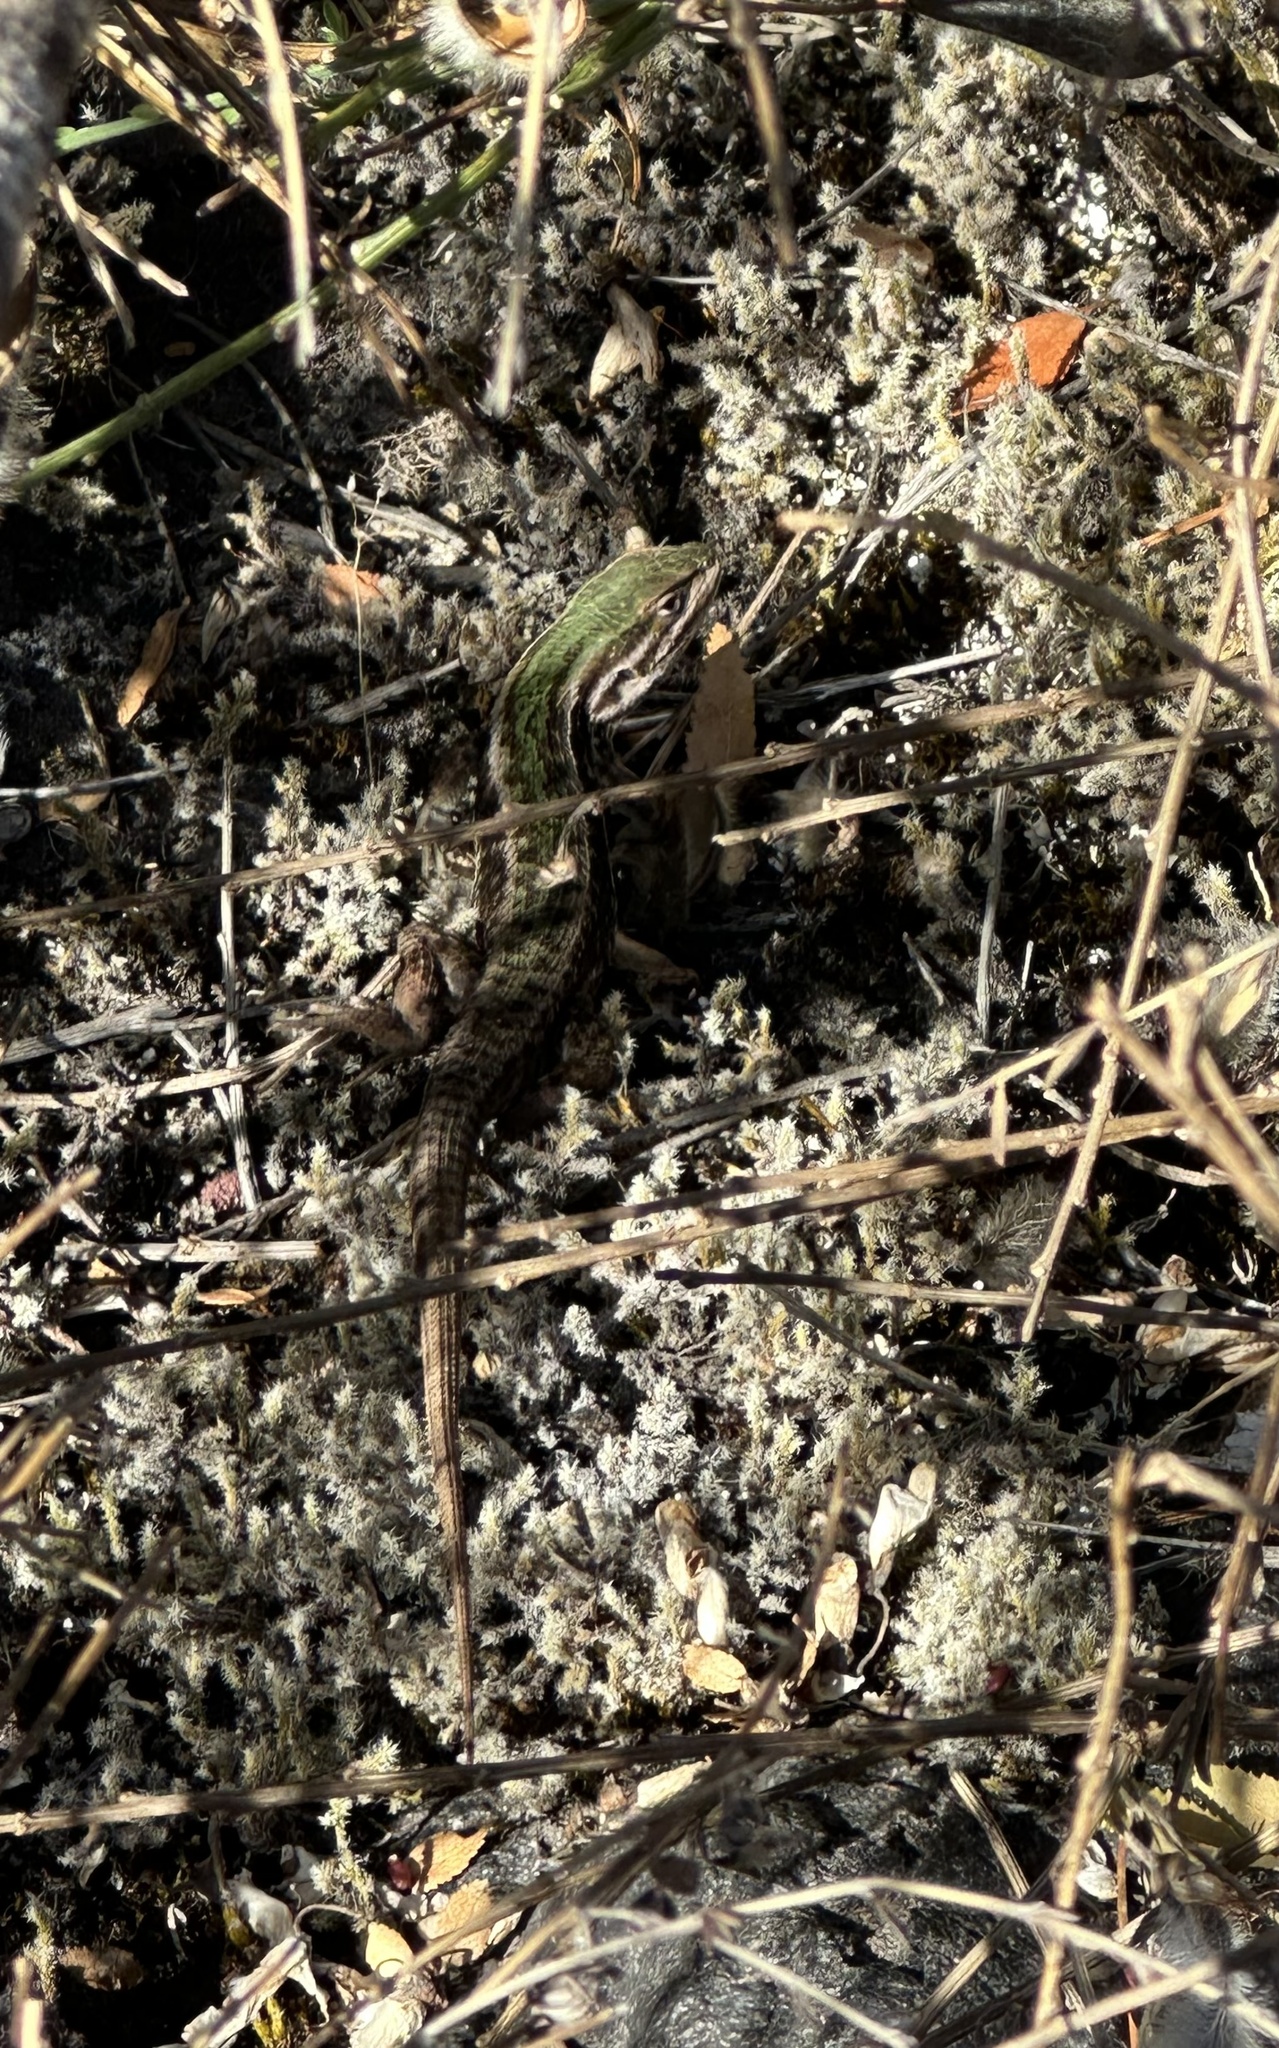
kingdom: Animalia
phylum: Chordata
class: Squamata
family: Liolaemidae
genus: Liolaemus
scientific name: Liolaemus chiliensis
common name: Chilean tree iguana
